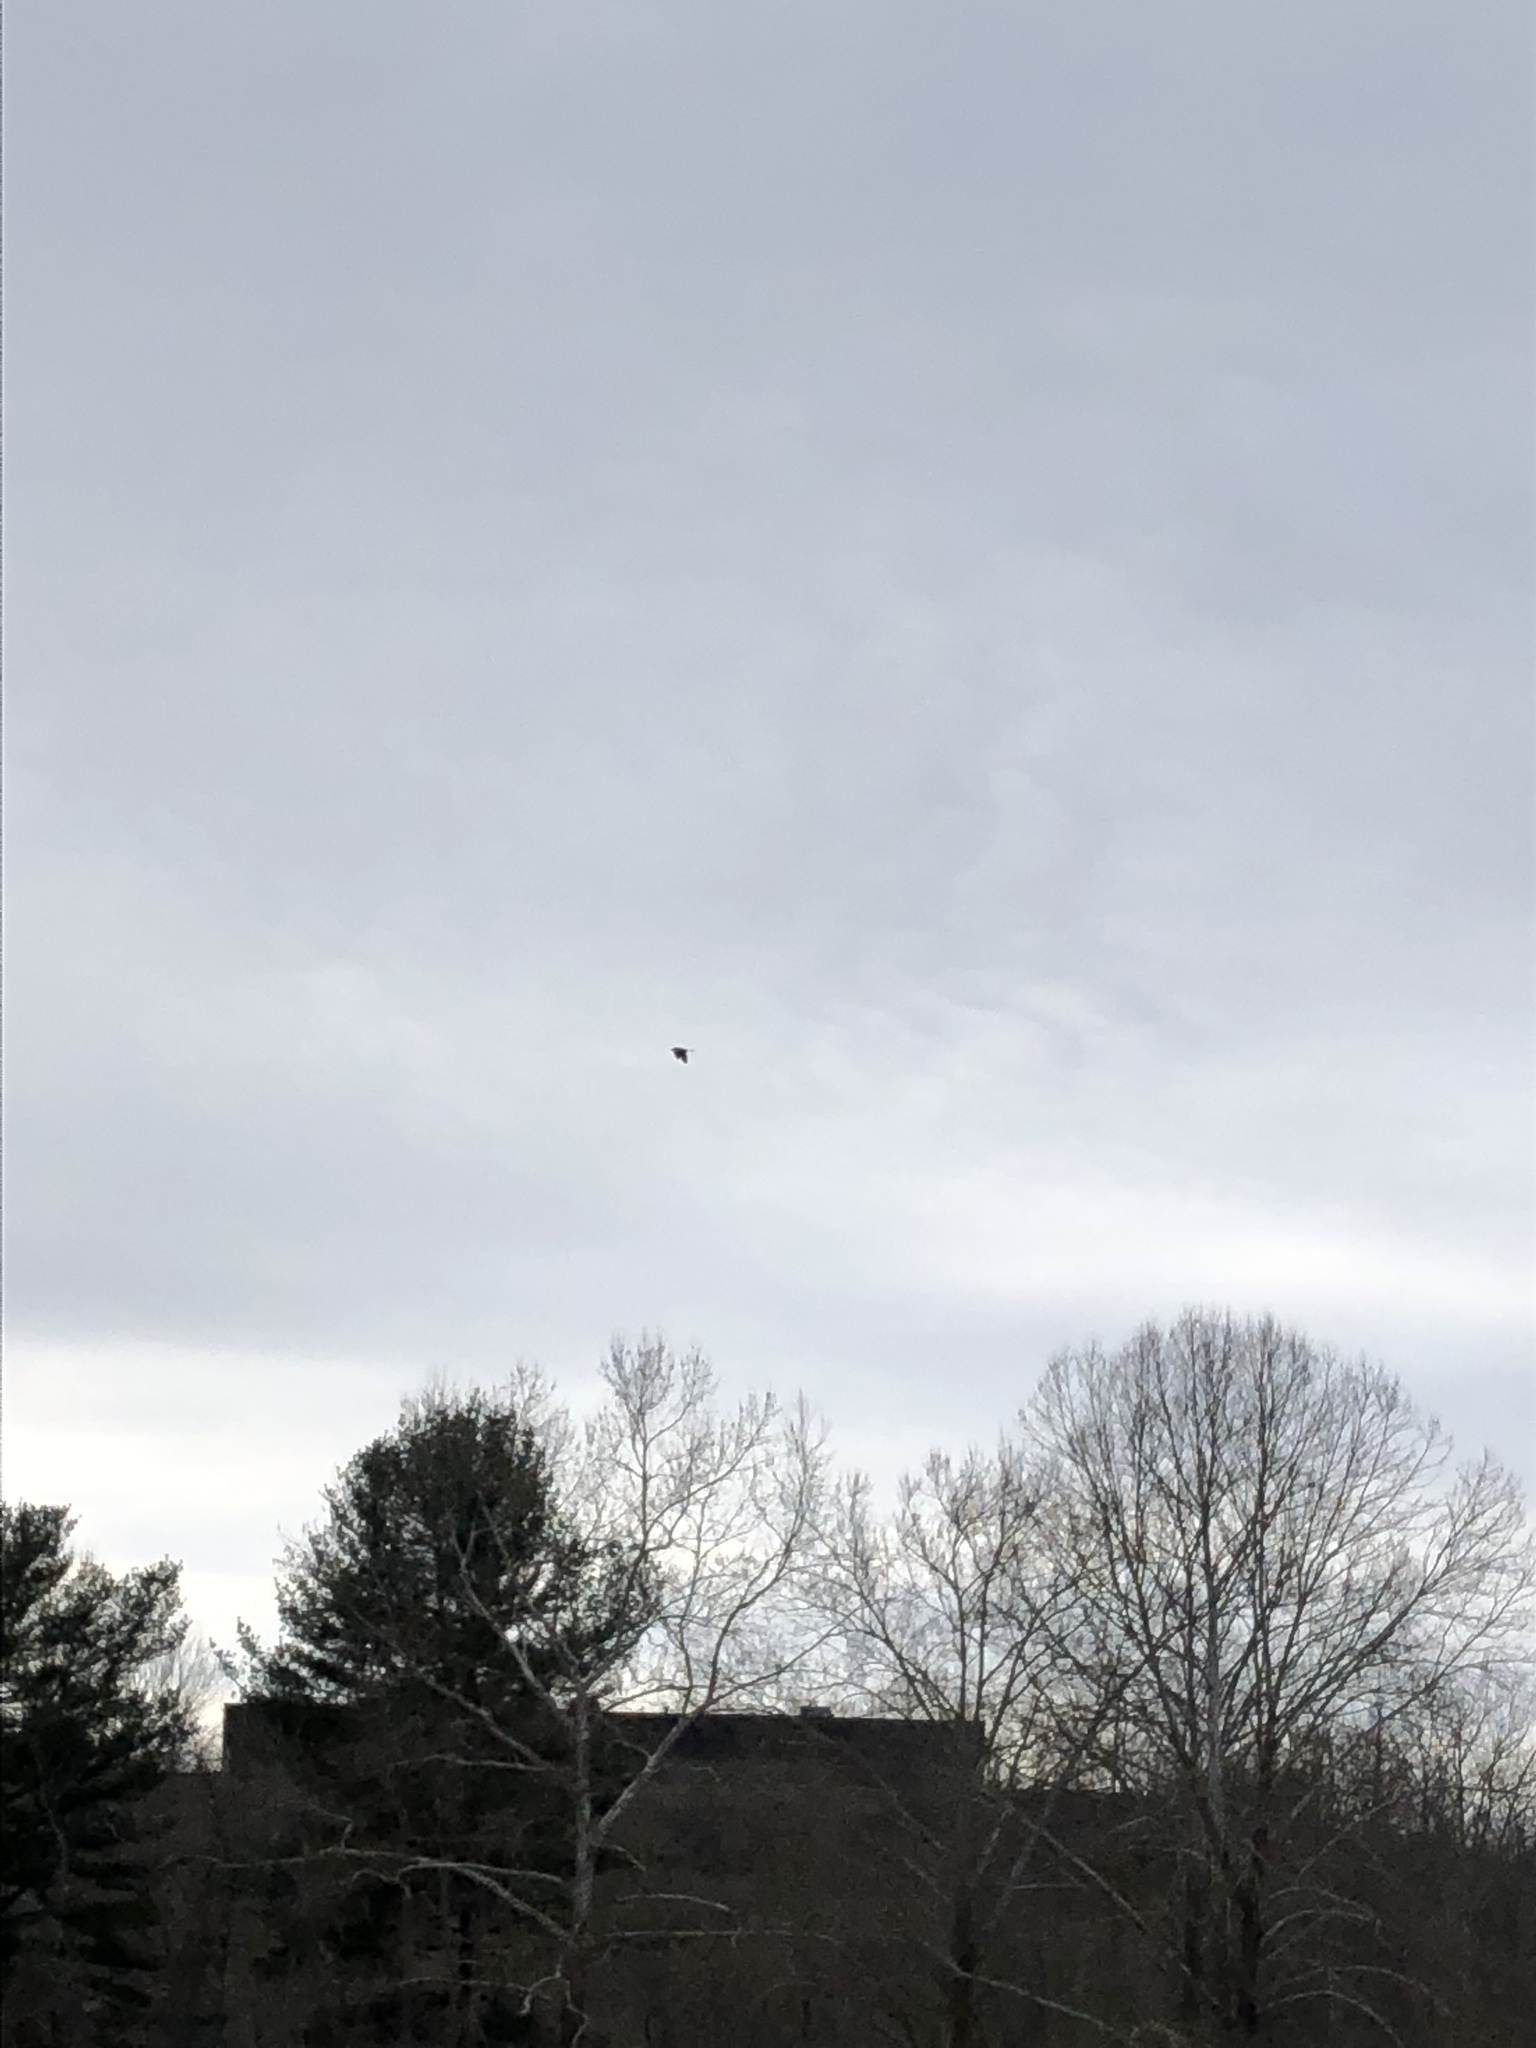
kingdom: Animalia
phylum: Chordata
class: Aves
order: Pelecaniformes
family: Ardeidae
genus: Ardea
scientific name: Ardea herodias
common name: Great blue heron
